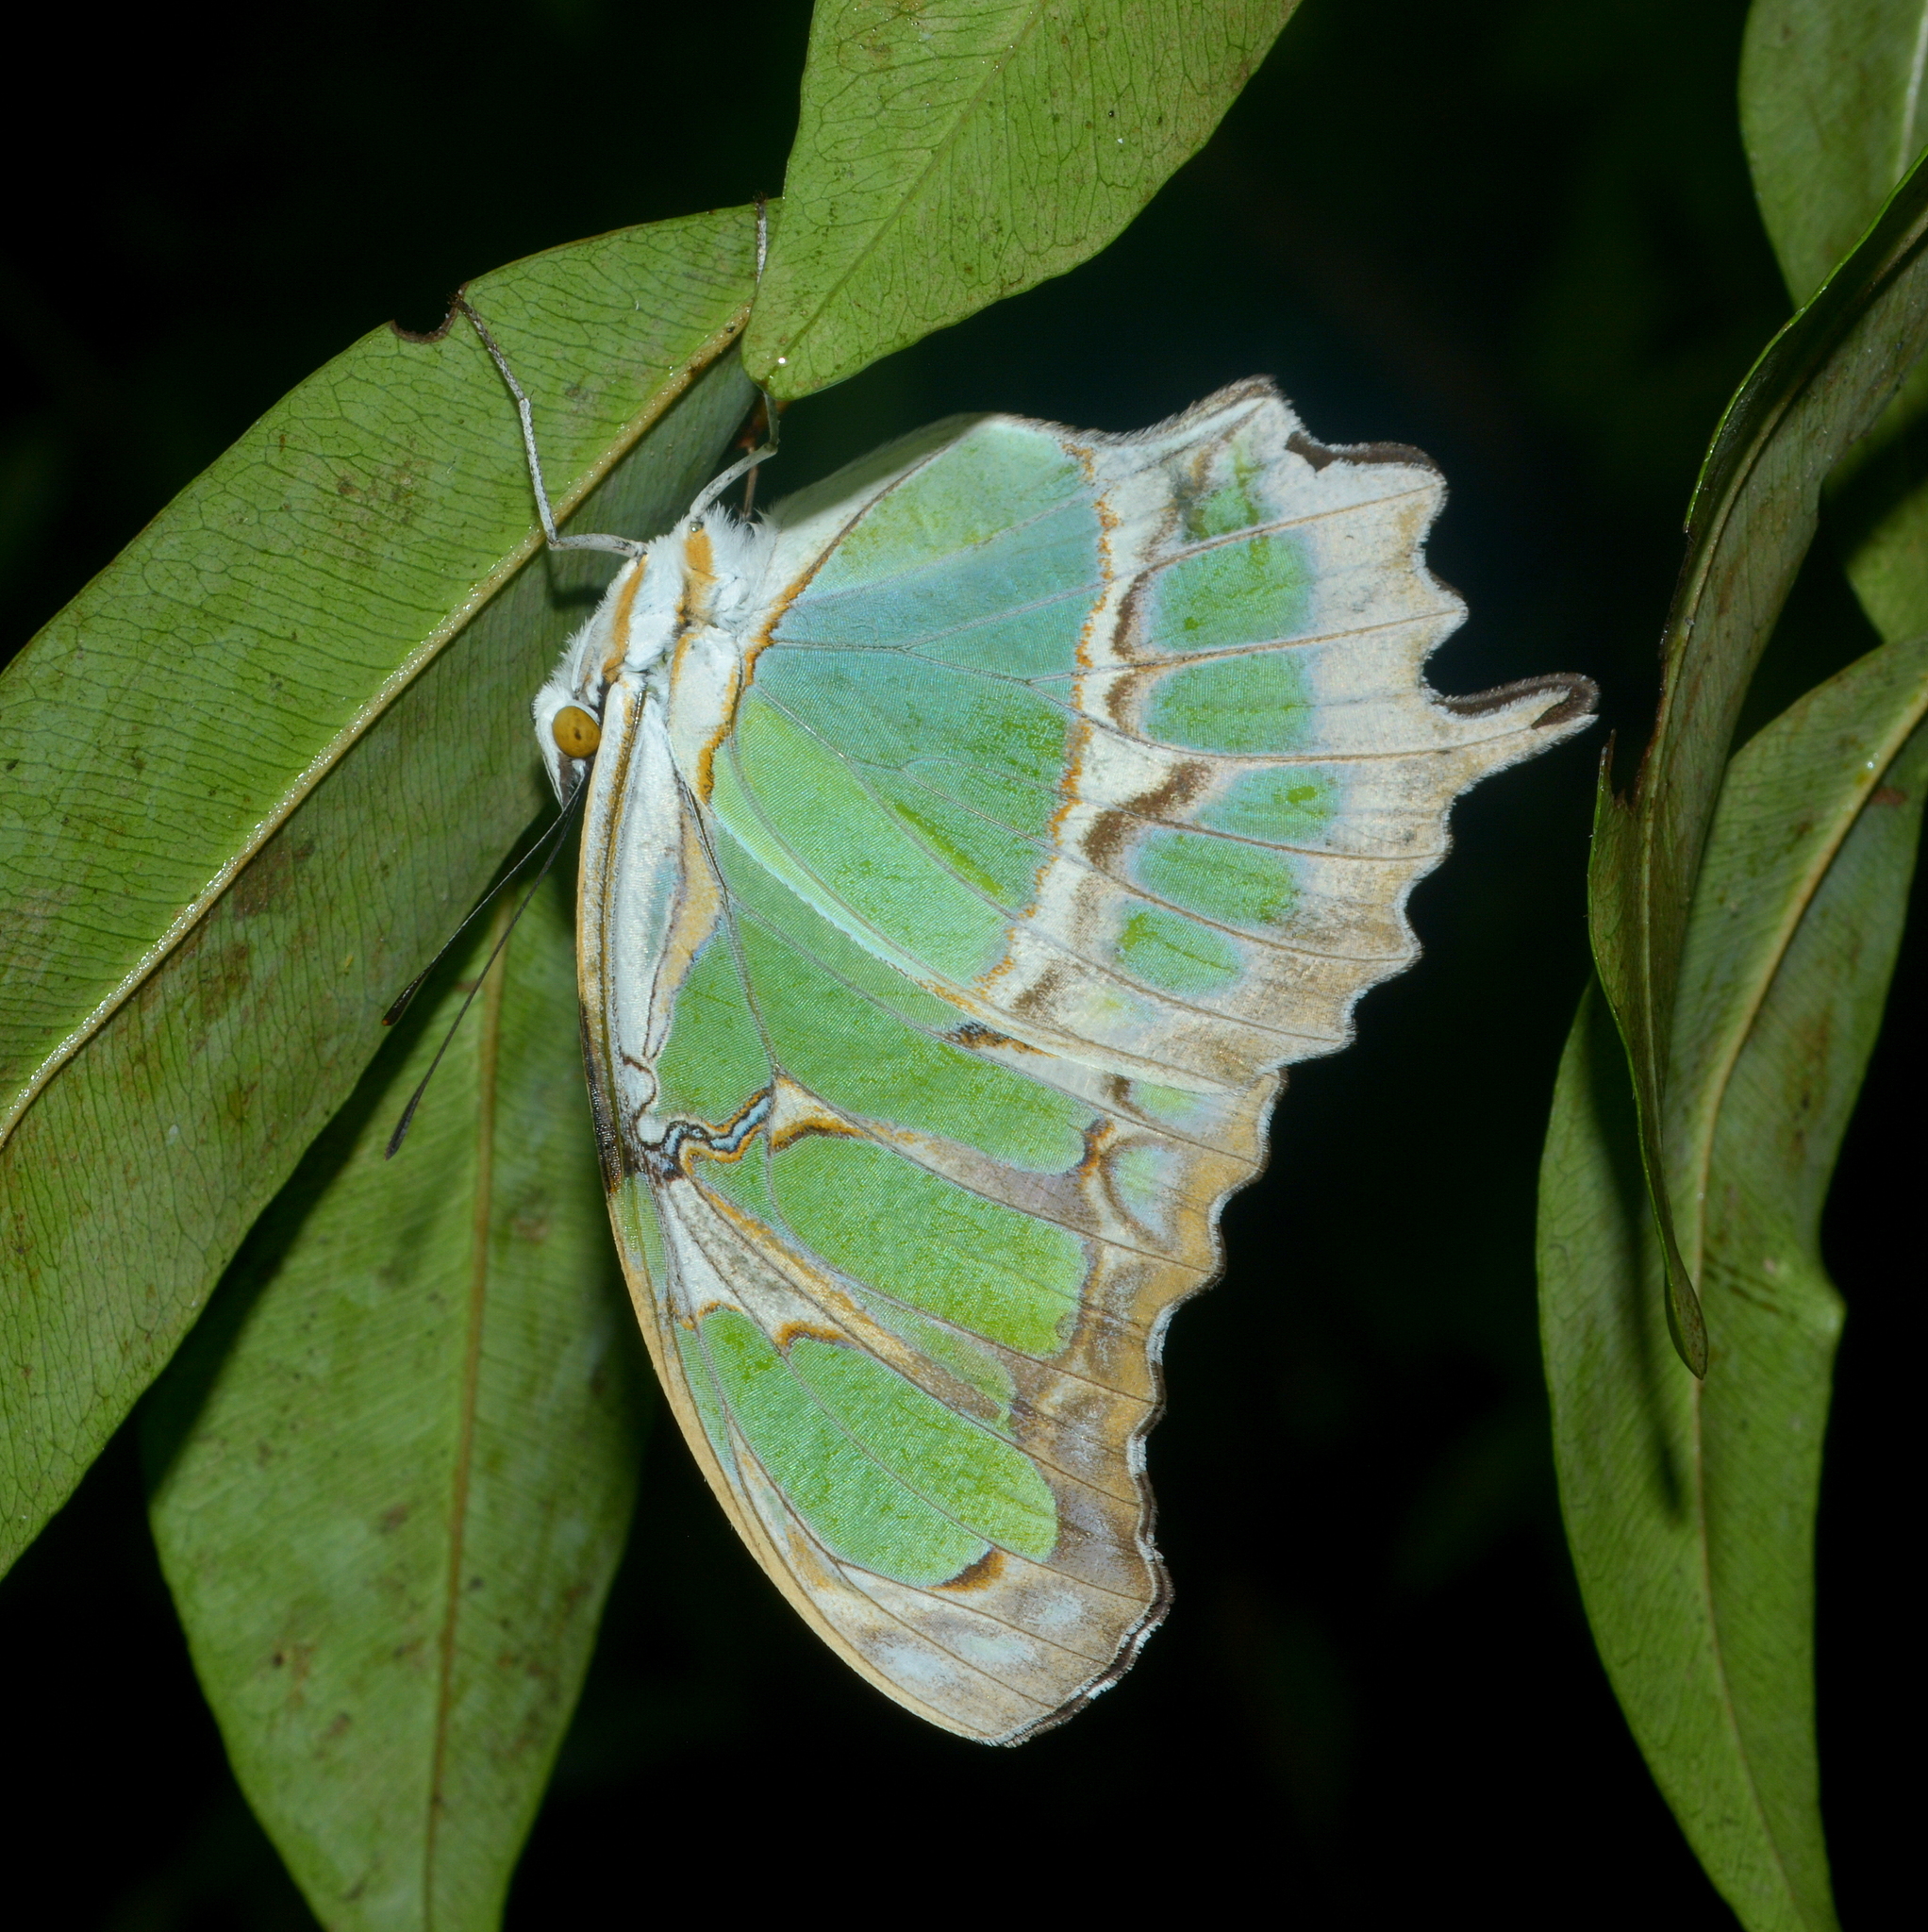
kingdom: Animalia
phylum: Arthropoda
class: Insecta
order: Lepidoptera
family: Nymphalidae
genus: Siproeta
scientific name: Siproeta stelenes
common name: Malachite
